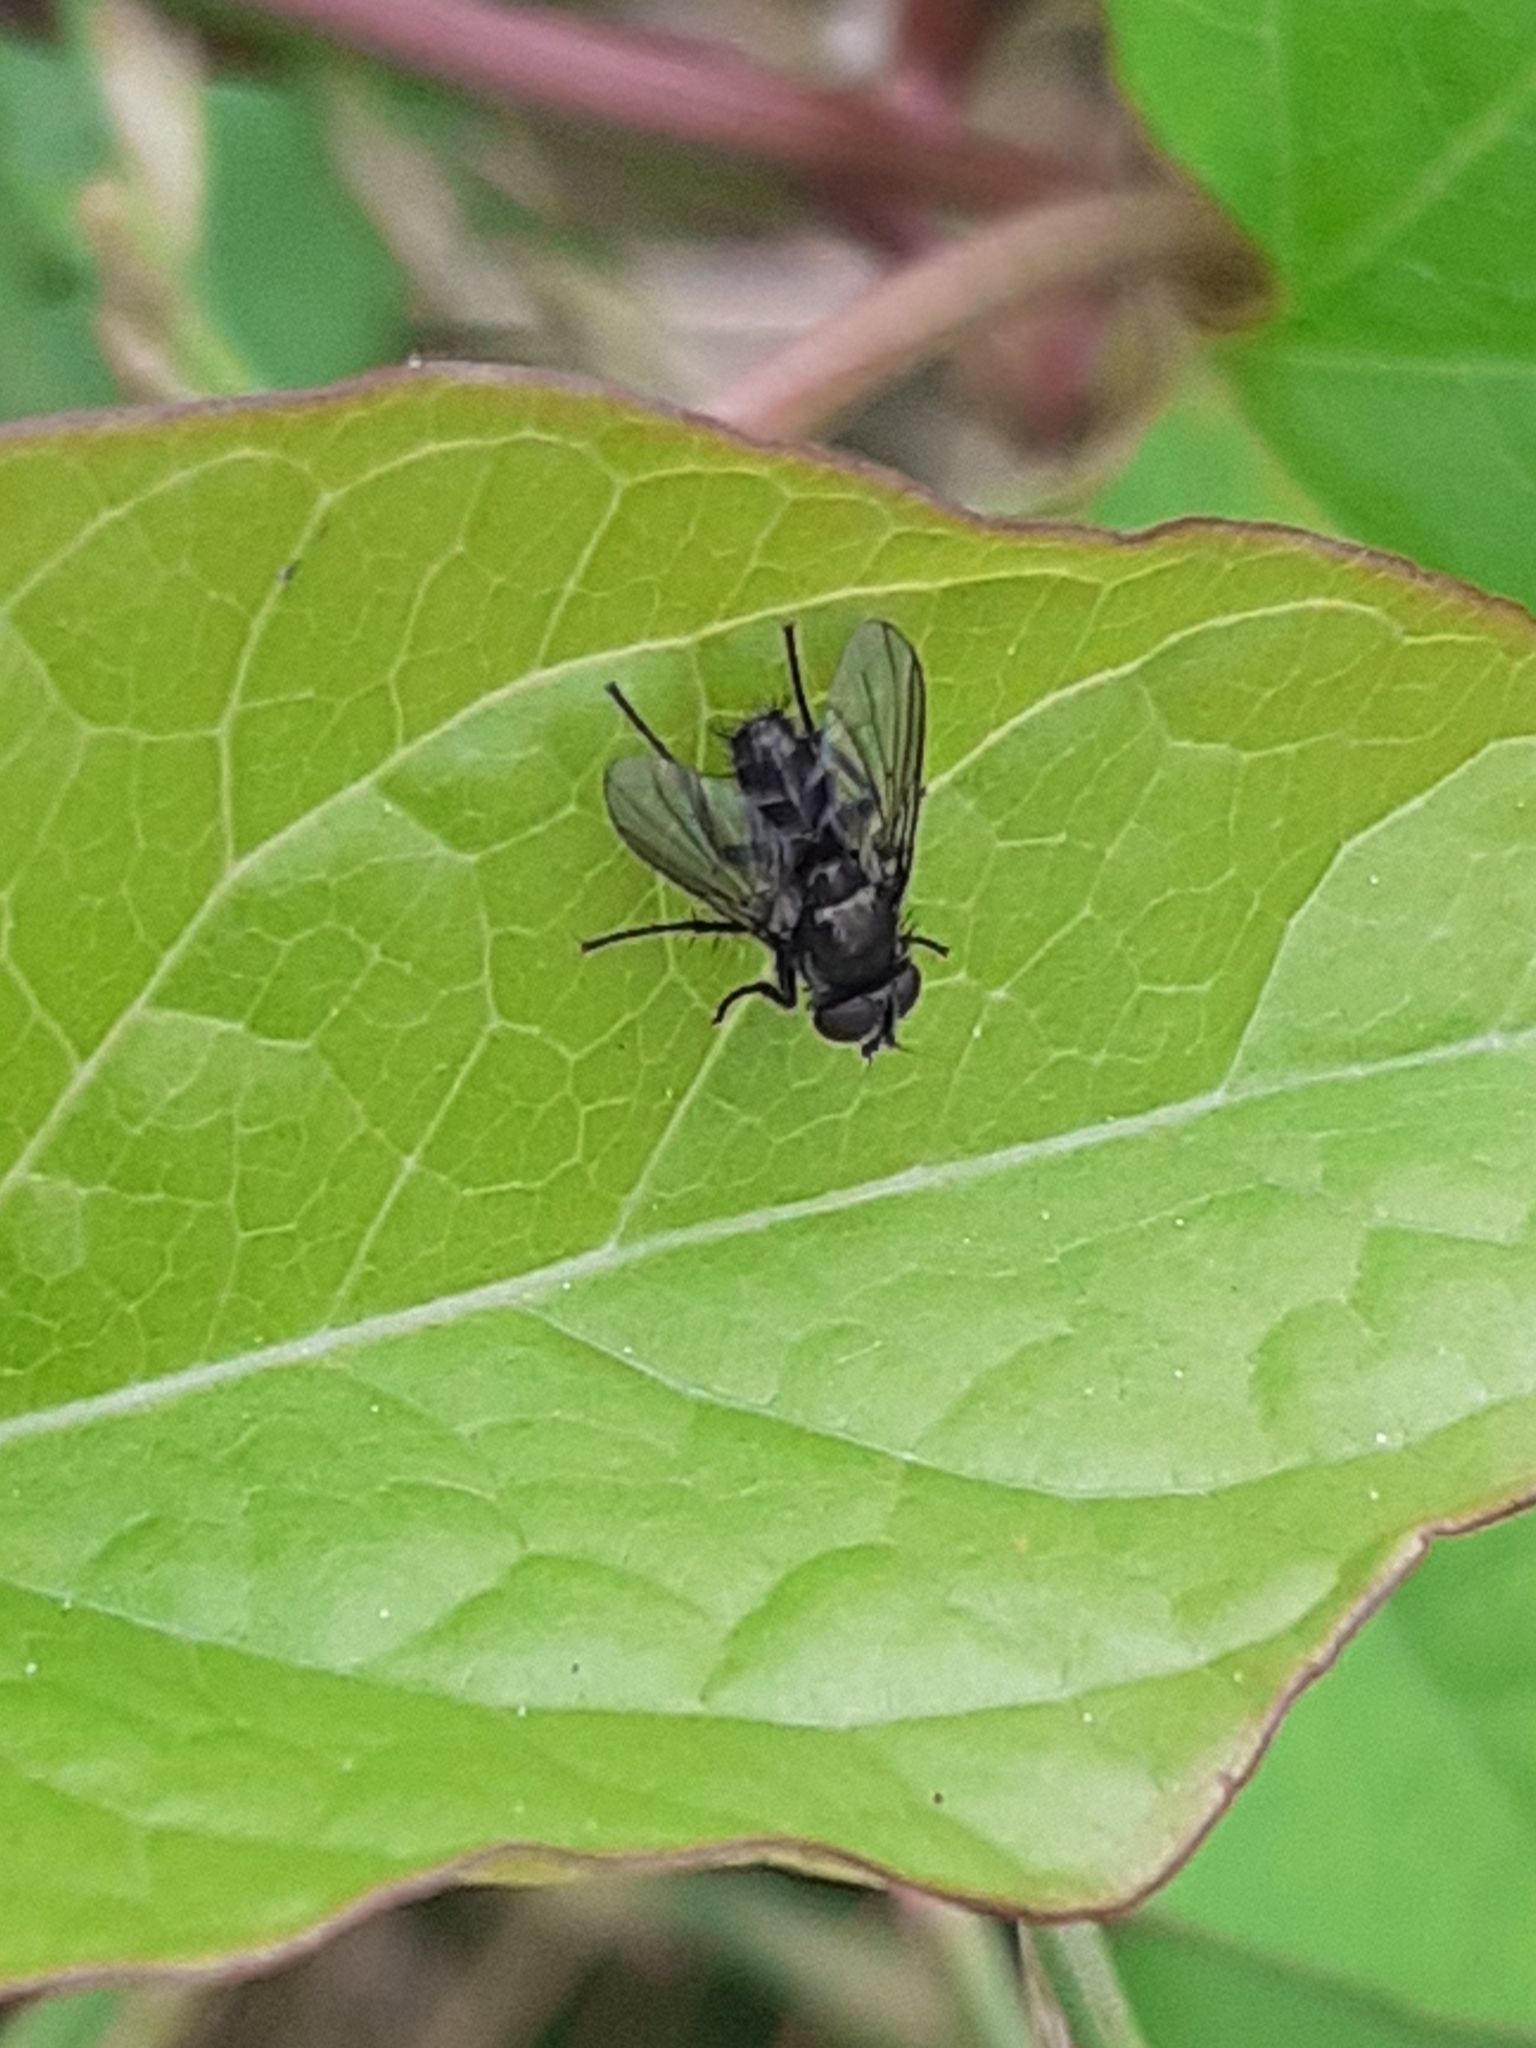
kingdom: Animalia
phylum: Arthropoda
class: Insecta
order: Diptera
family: Calliphoridae
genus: Rhinophora
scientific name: Rhinophora lepida
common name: Pouting woodlouse-fly
